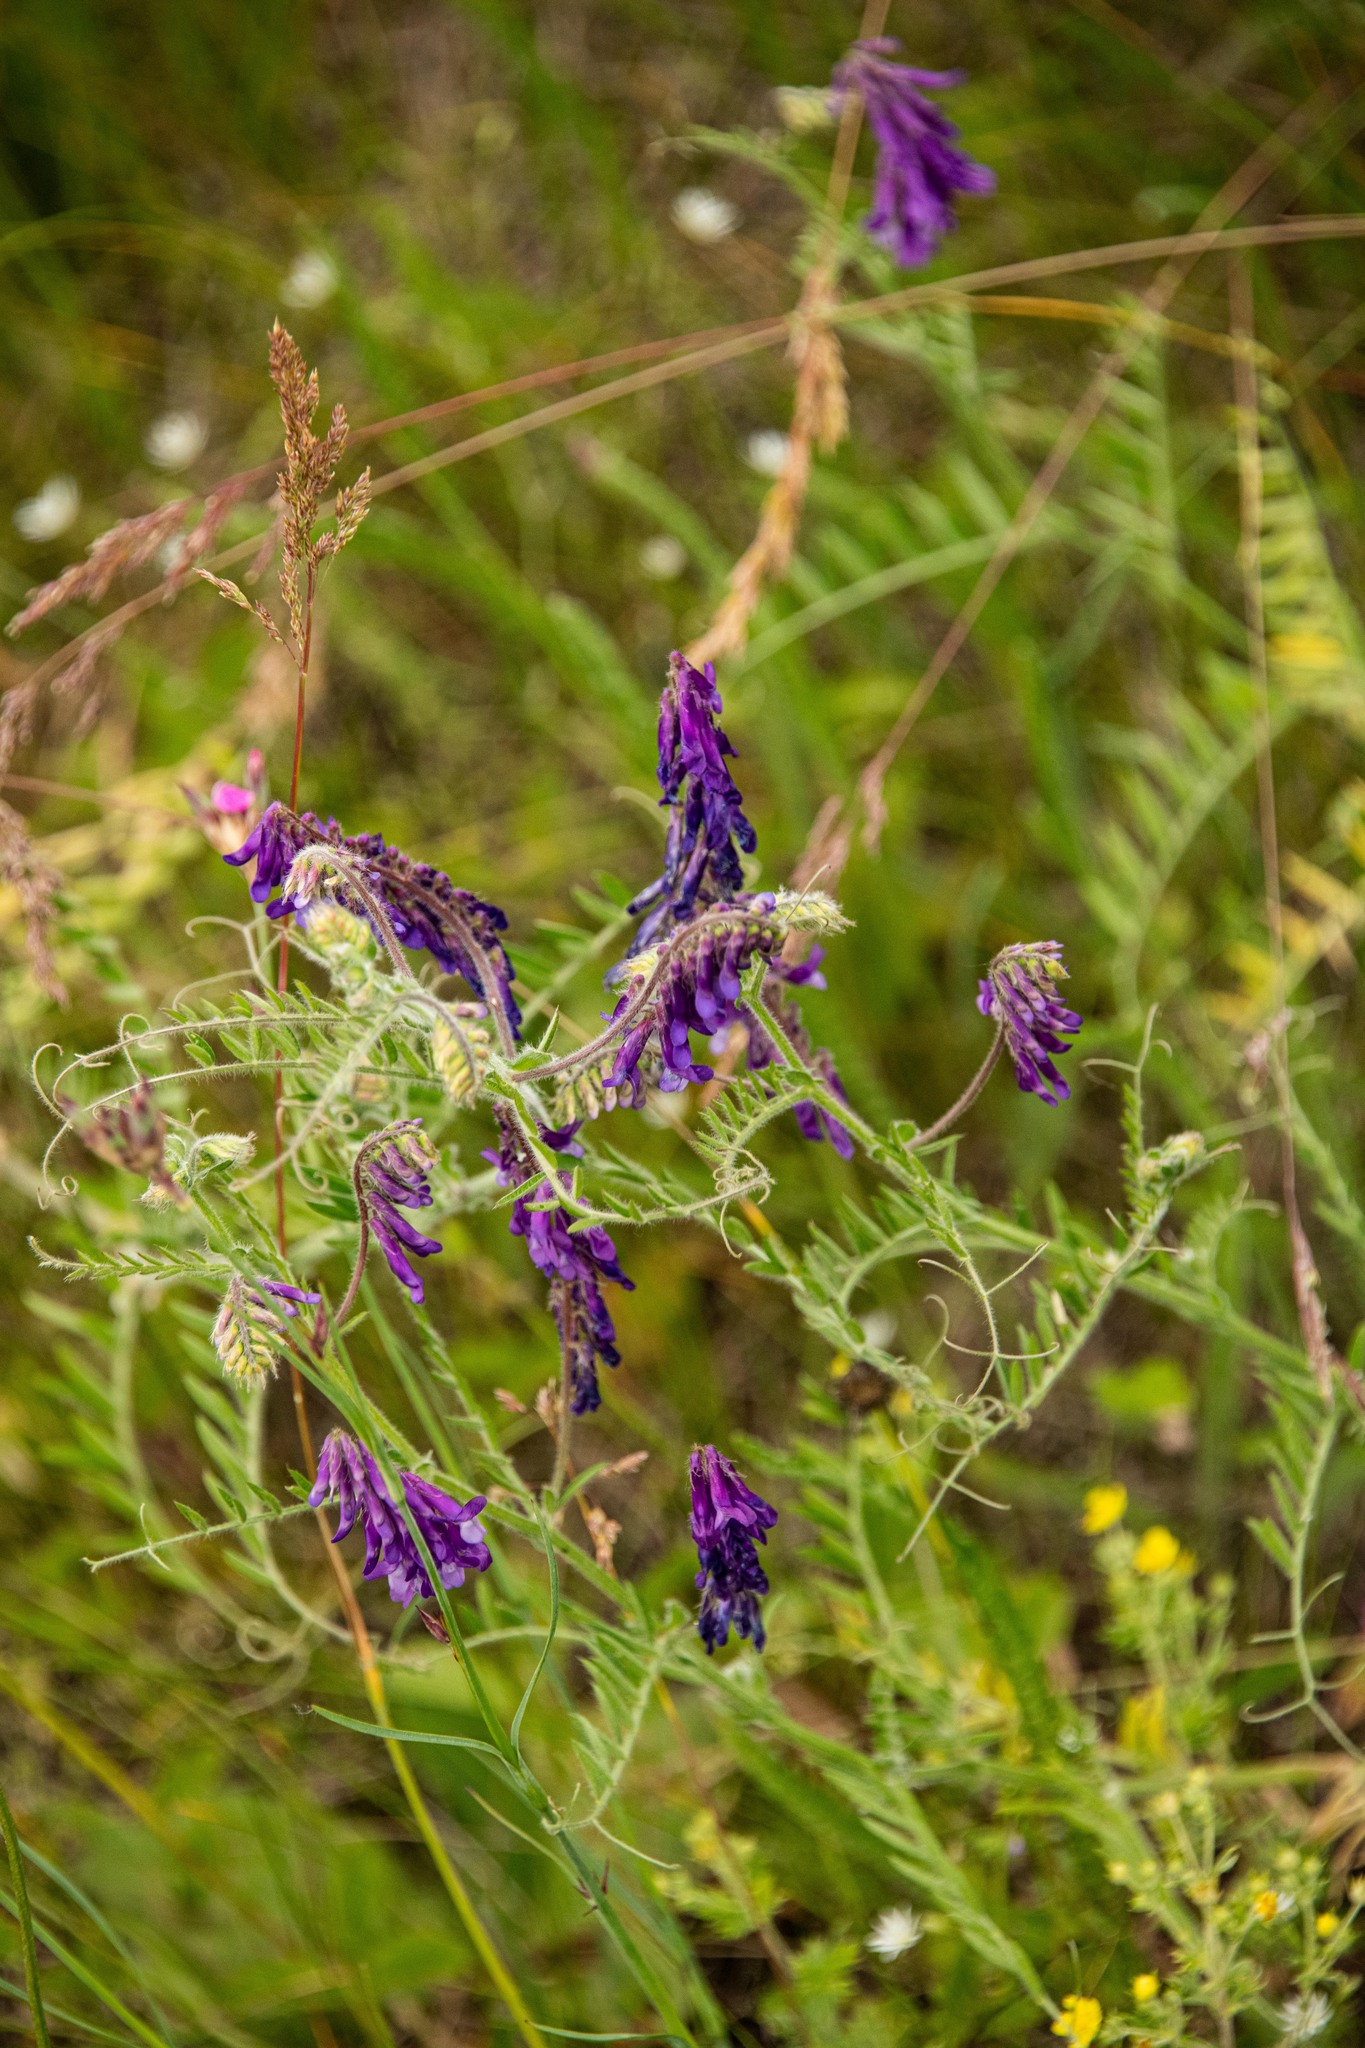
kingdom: Plantae
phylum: Tracheophyta
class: Magnoliopsida
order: Fabales
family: Fabaceae
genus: Vicia
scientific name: Vicia villosa
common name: Fodder vetch
